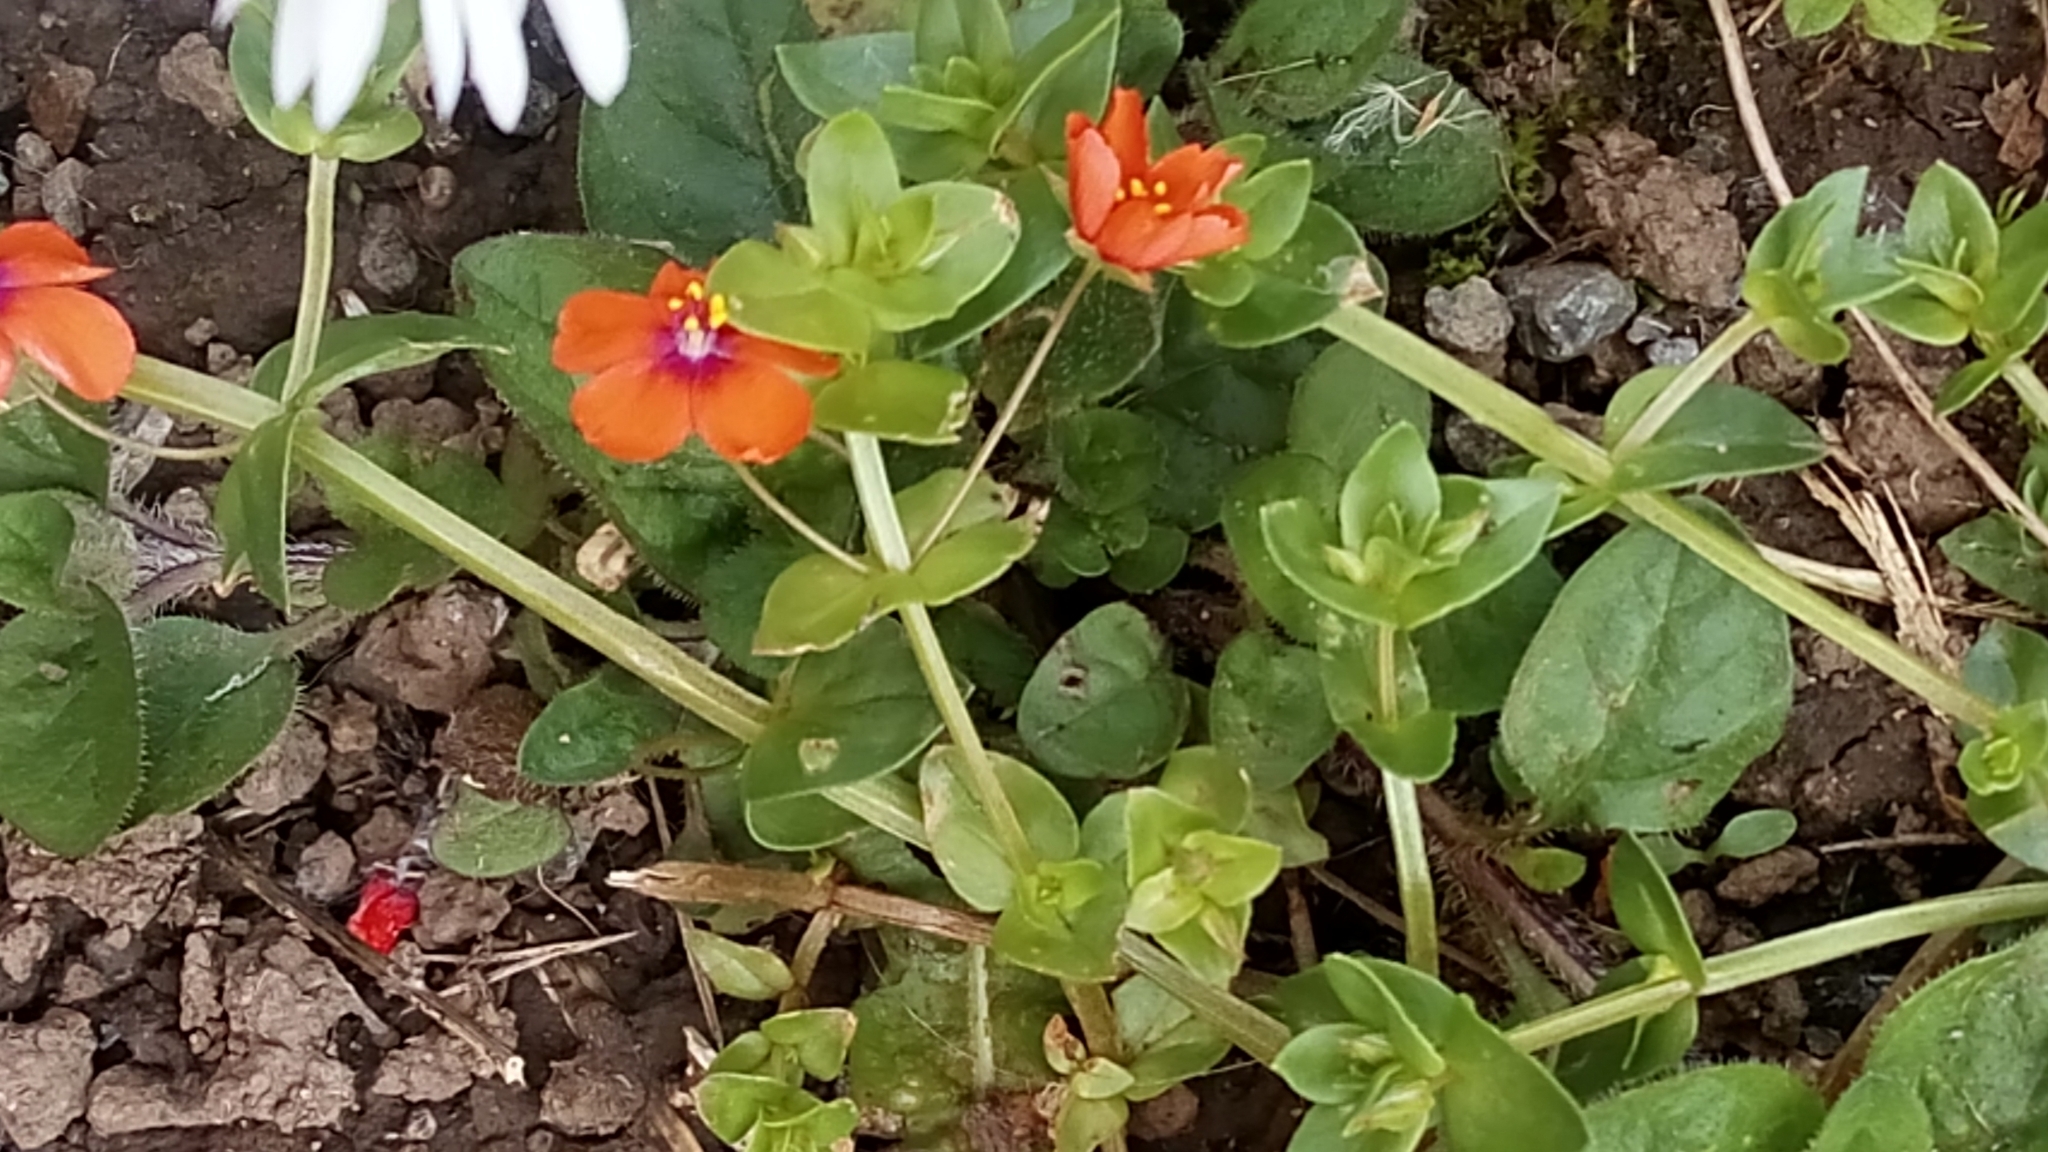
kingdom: Plantae
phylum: Tracheophyta
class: Magnoliopsida
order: Ericales
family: Primulaceae
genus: Lysimachia
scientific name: Lysimachia arvensis
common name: Scarlet pimpernel
